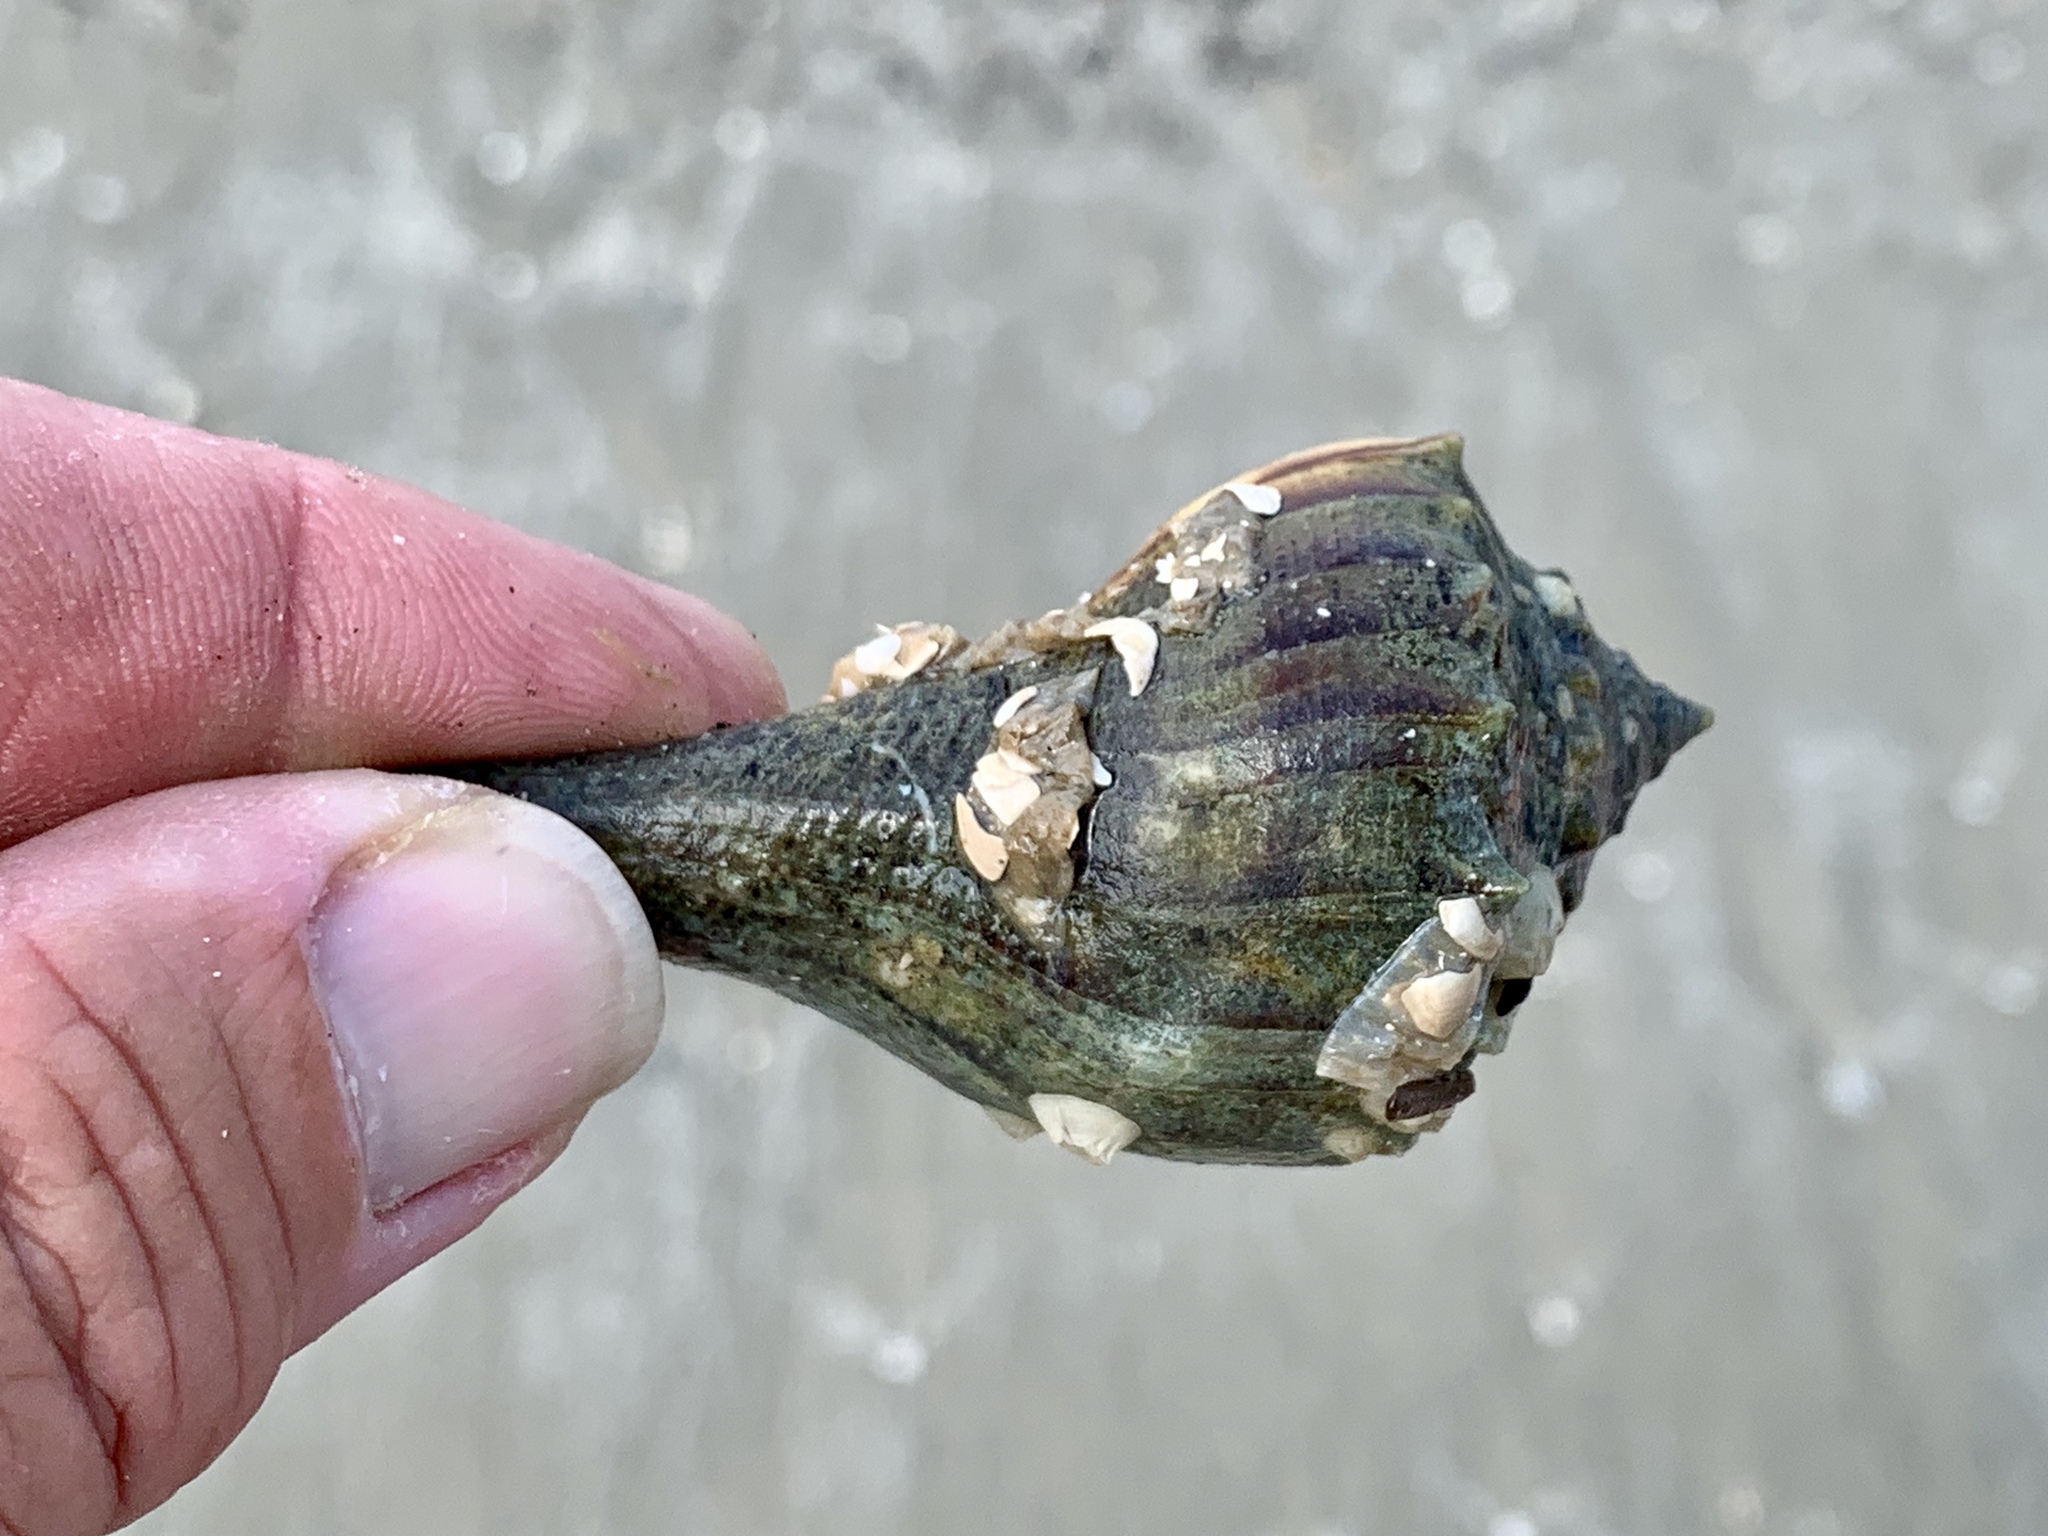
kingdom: Animalia
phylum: Mollusca
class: Gastropoda
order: Neogastropoda
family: Busyconidae
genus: Sinistrofulgur
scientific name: Sinistrofulgur pulleyi
